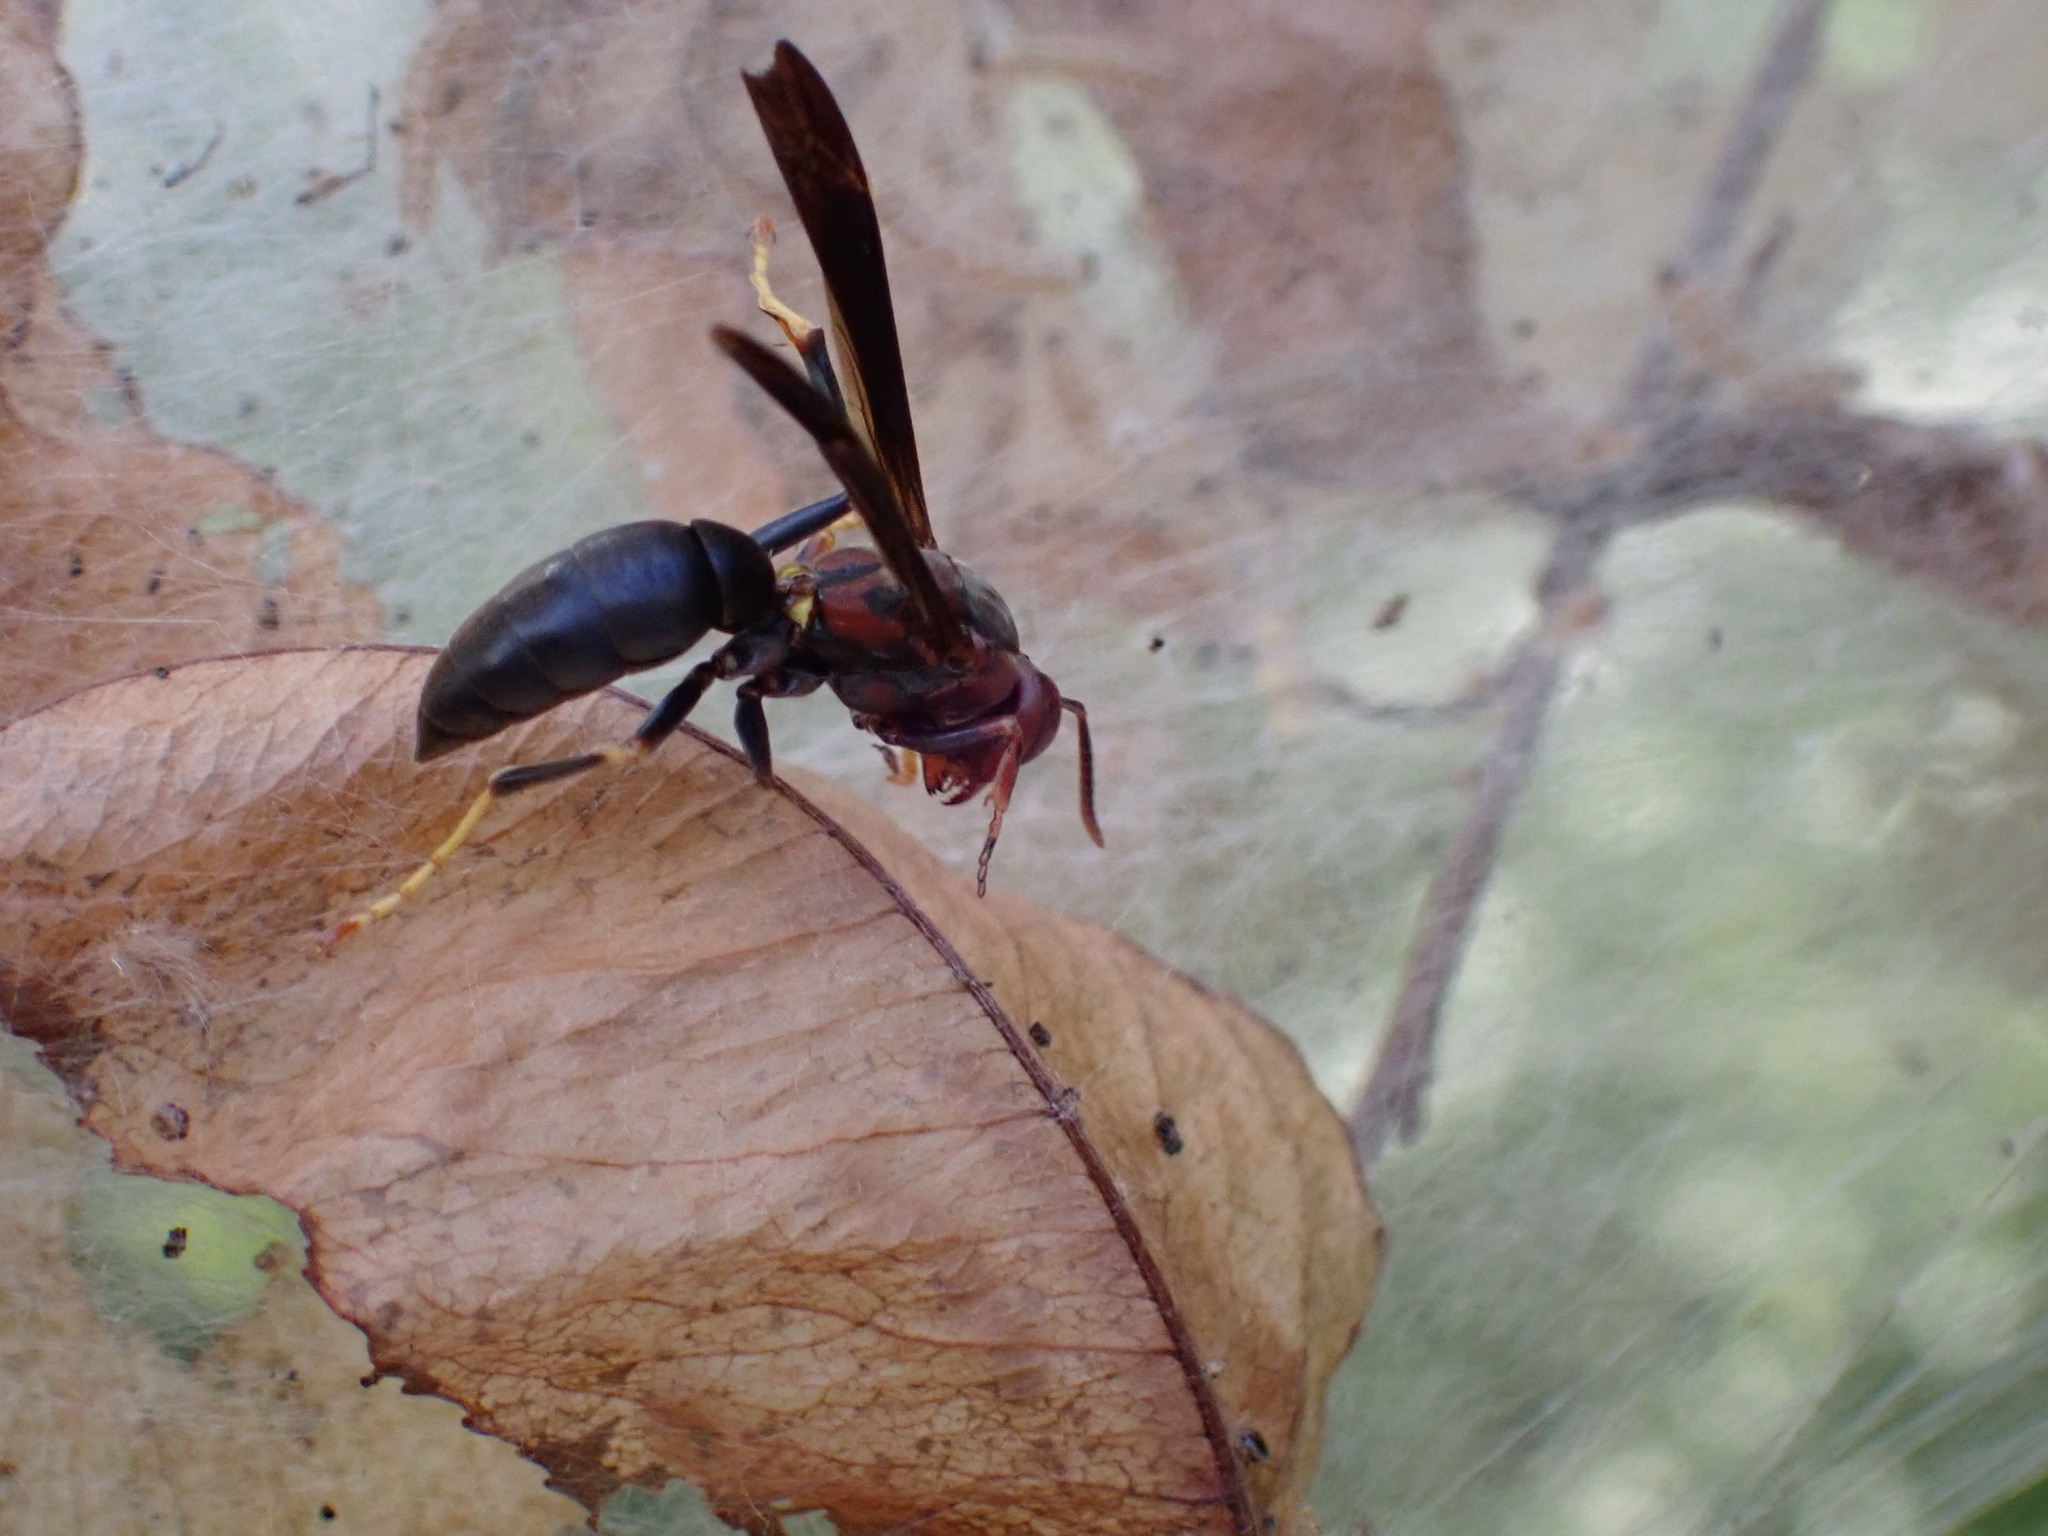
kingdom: Animalia
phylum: Arthropoda
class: Insecta
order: Hymenoptera
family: Eumenidae
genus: Polistes
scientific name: Polistes metricus
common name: Metric paper wasp
